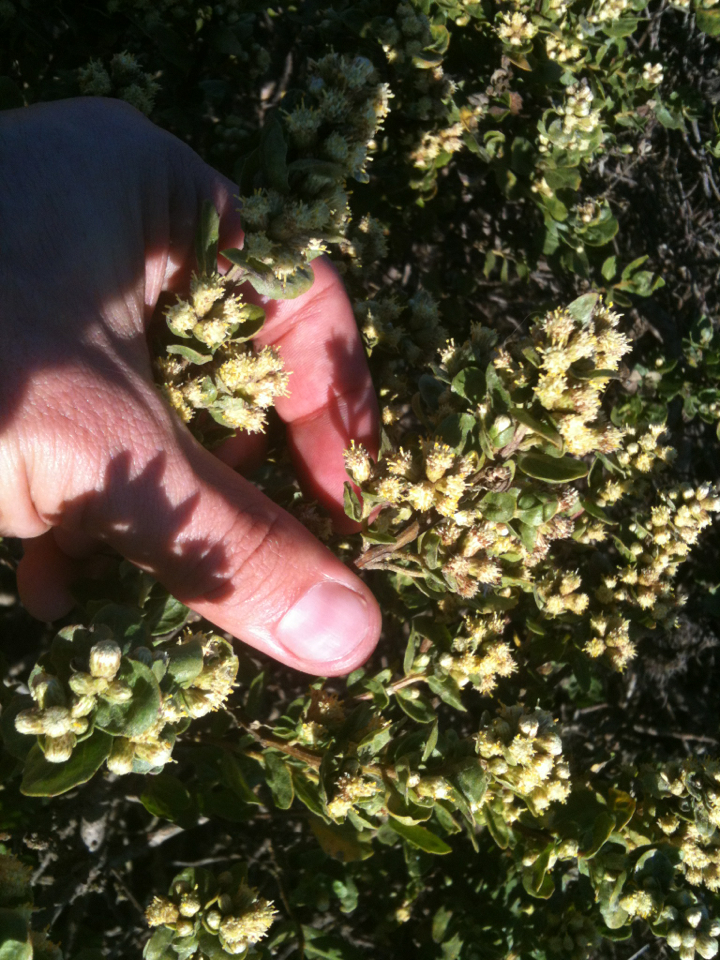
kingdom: Plantae
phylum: Tracheophyta
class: Magnoliopsida
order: Asterales
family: Asteraceae
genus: Baccharis
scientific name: Baccharis pilularis
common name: Coyotebrush
